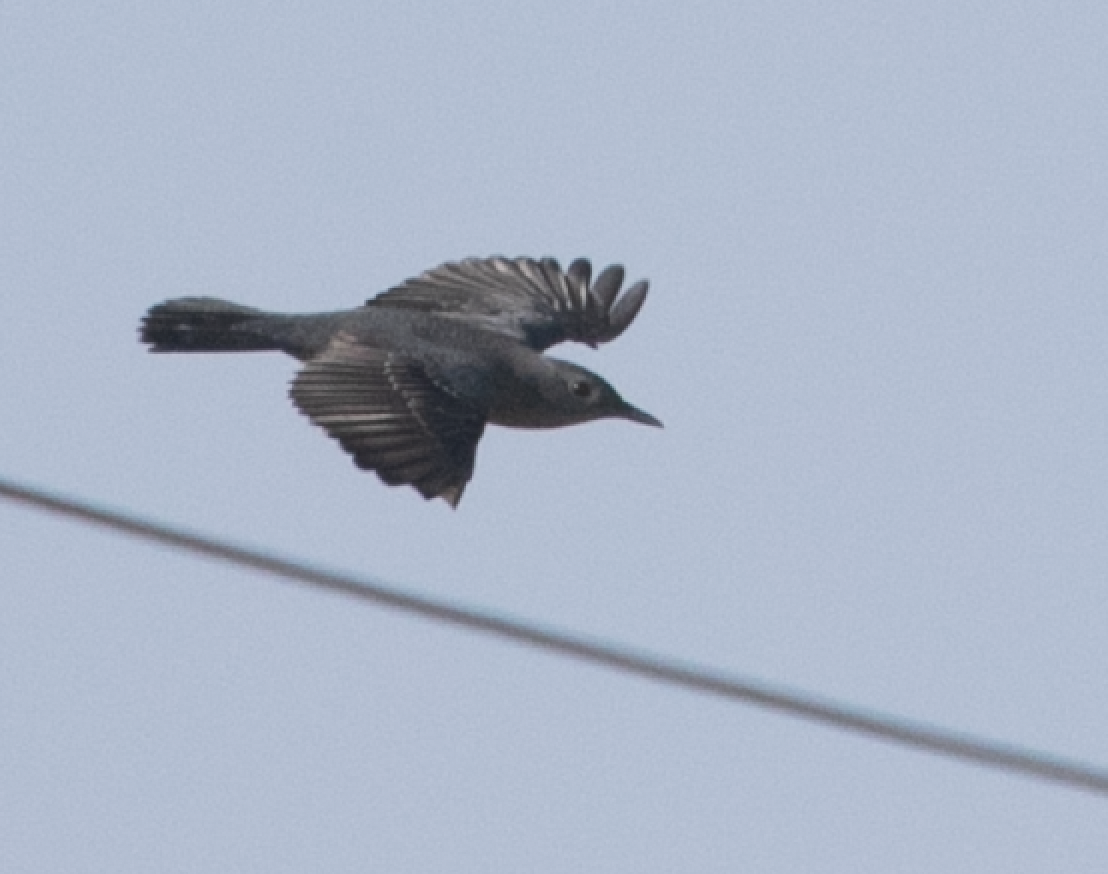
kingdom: Animalia
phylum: Chordata
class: Aves
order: Passeriformes
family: Muscicapidae
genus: Monticola
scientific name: Monticola solitarius
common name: Blue rock thrush
